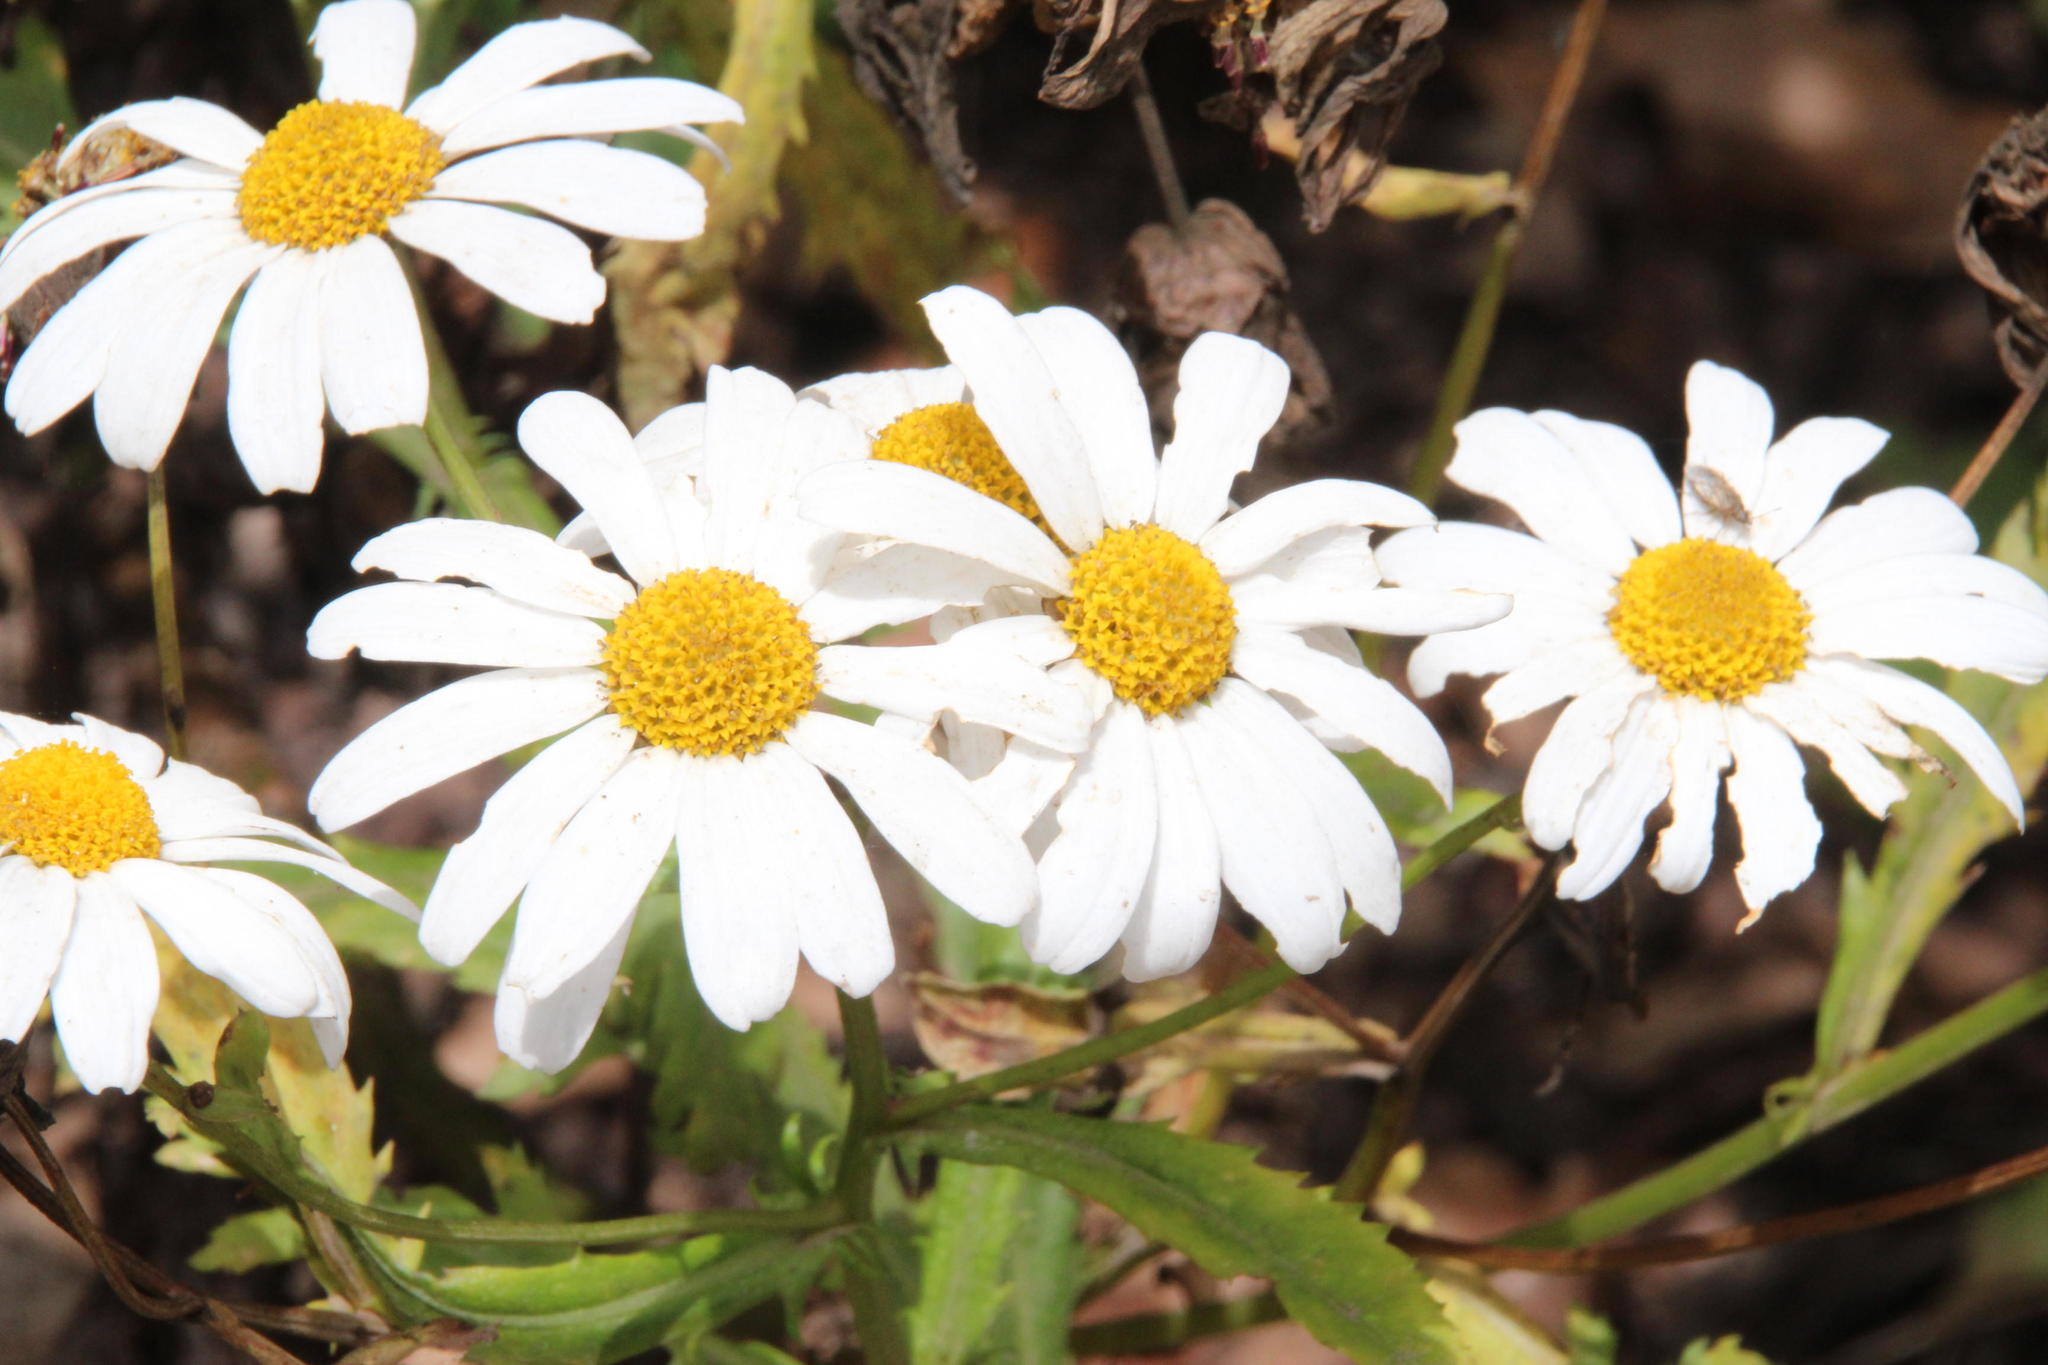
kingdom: Plantae
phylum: Tracheophyta
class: Magnoliopsida
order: Asterales
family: Asteraceae
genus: Argyranthemum
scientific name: Argyranthemum pinnatifidum
